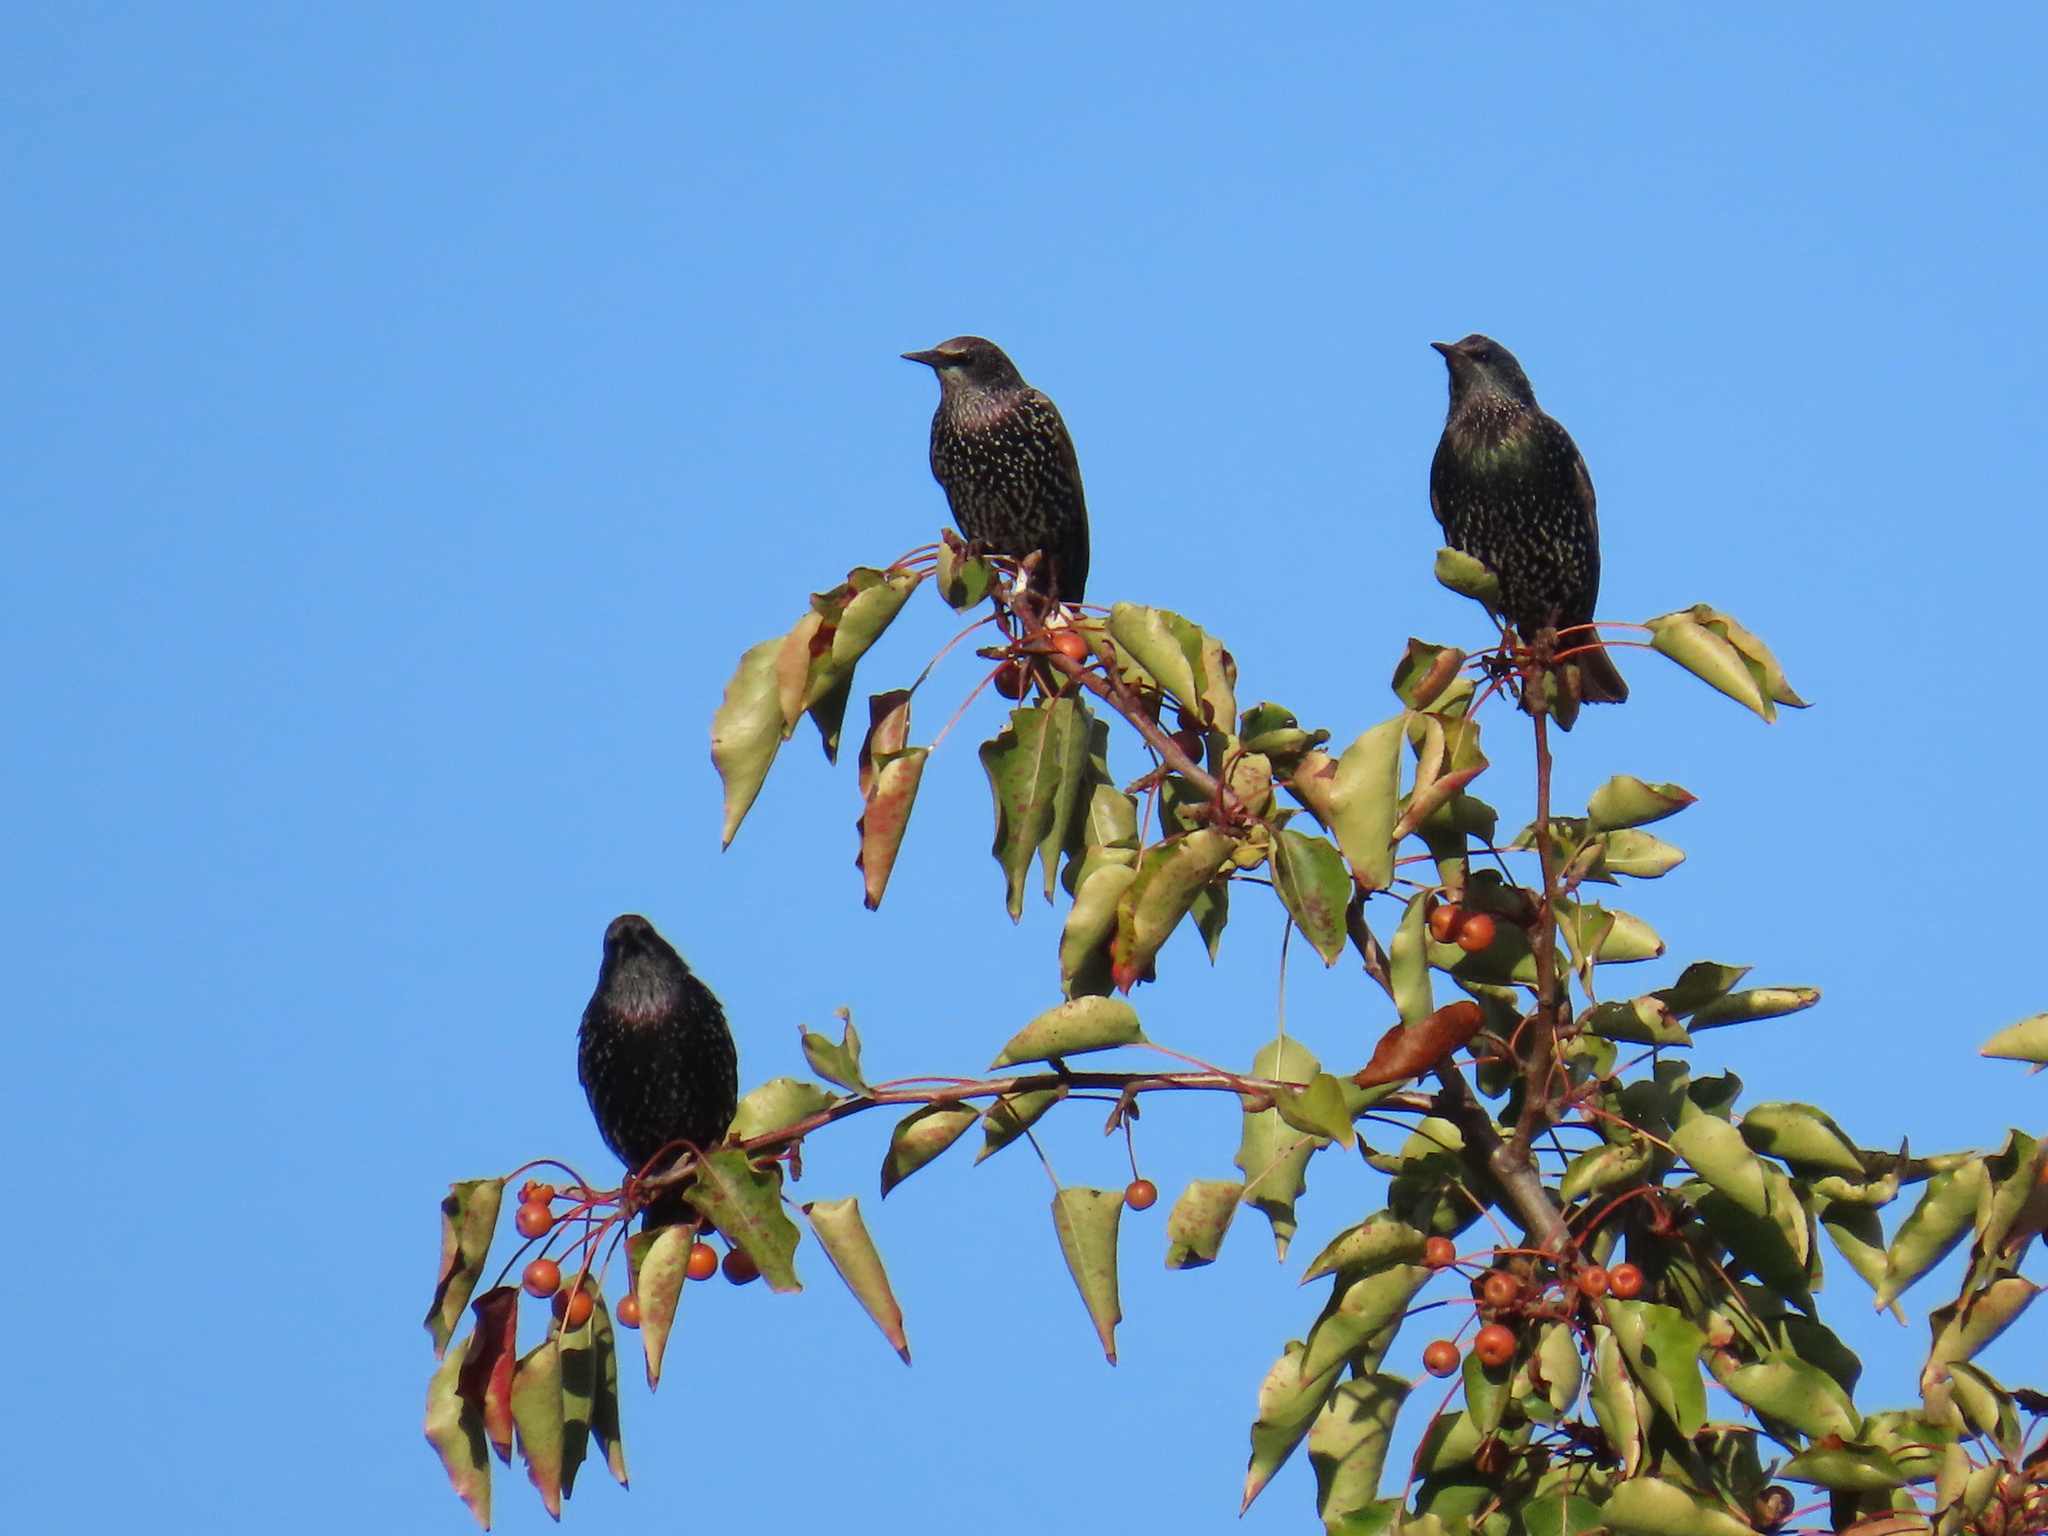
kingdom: Animalia
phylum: Chordata
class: Aves
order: Passeriformes
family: Sturnidae
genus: Sturnus
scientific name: Sturnus vulgaris
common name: Common starling
